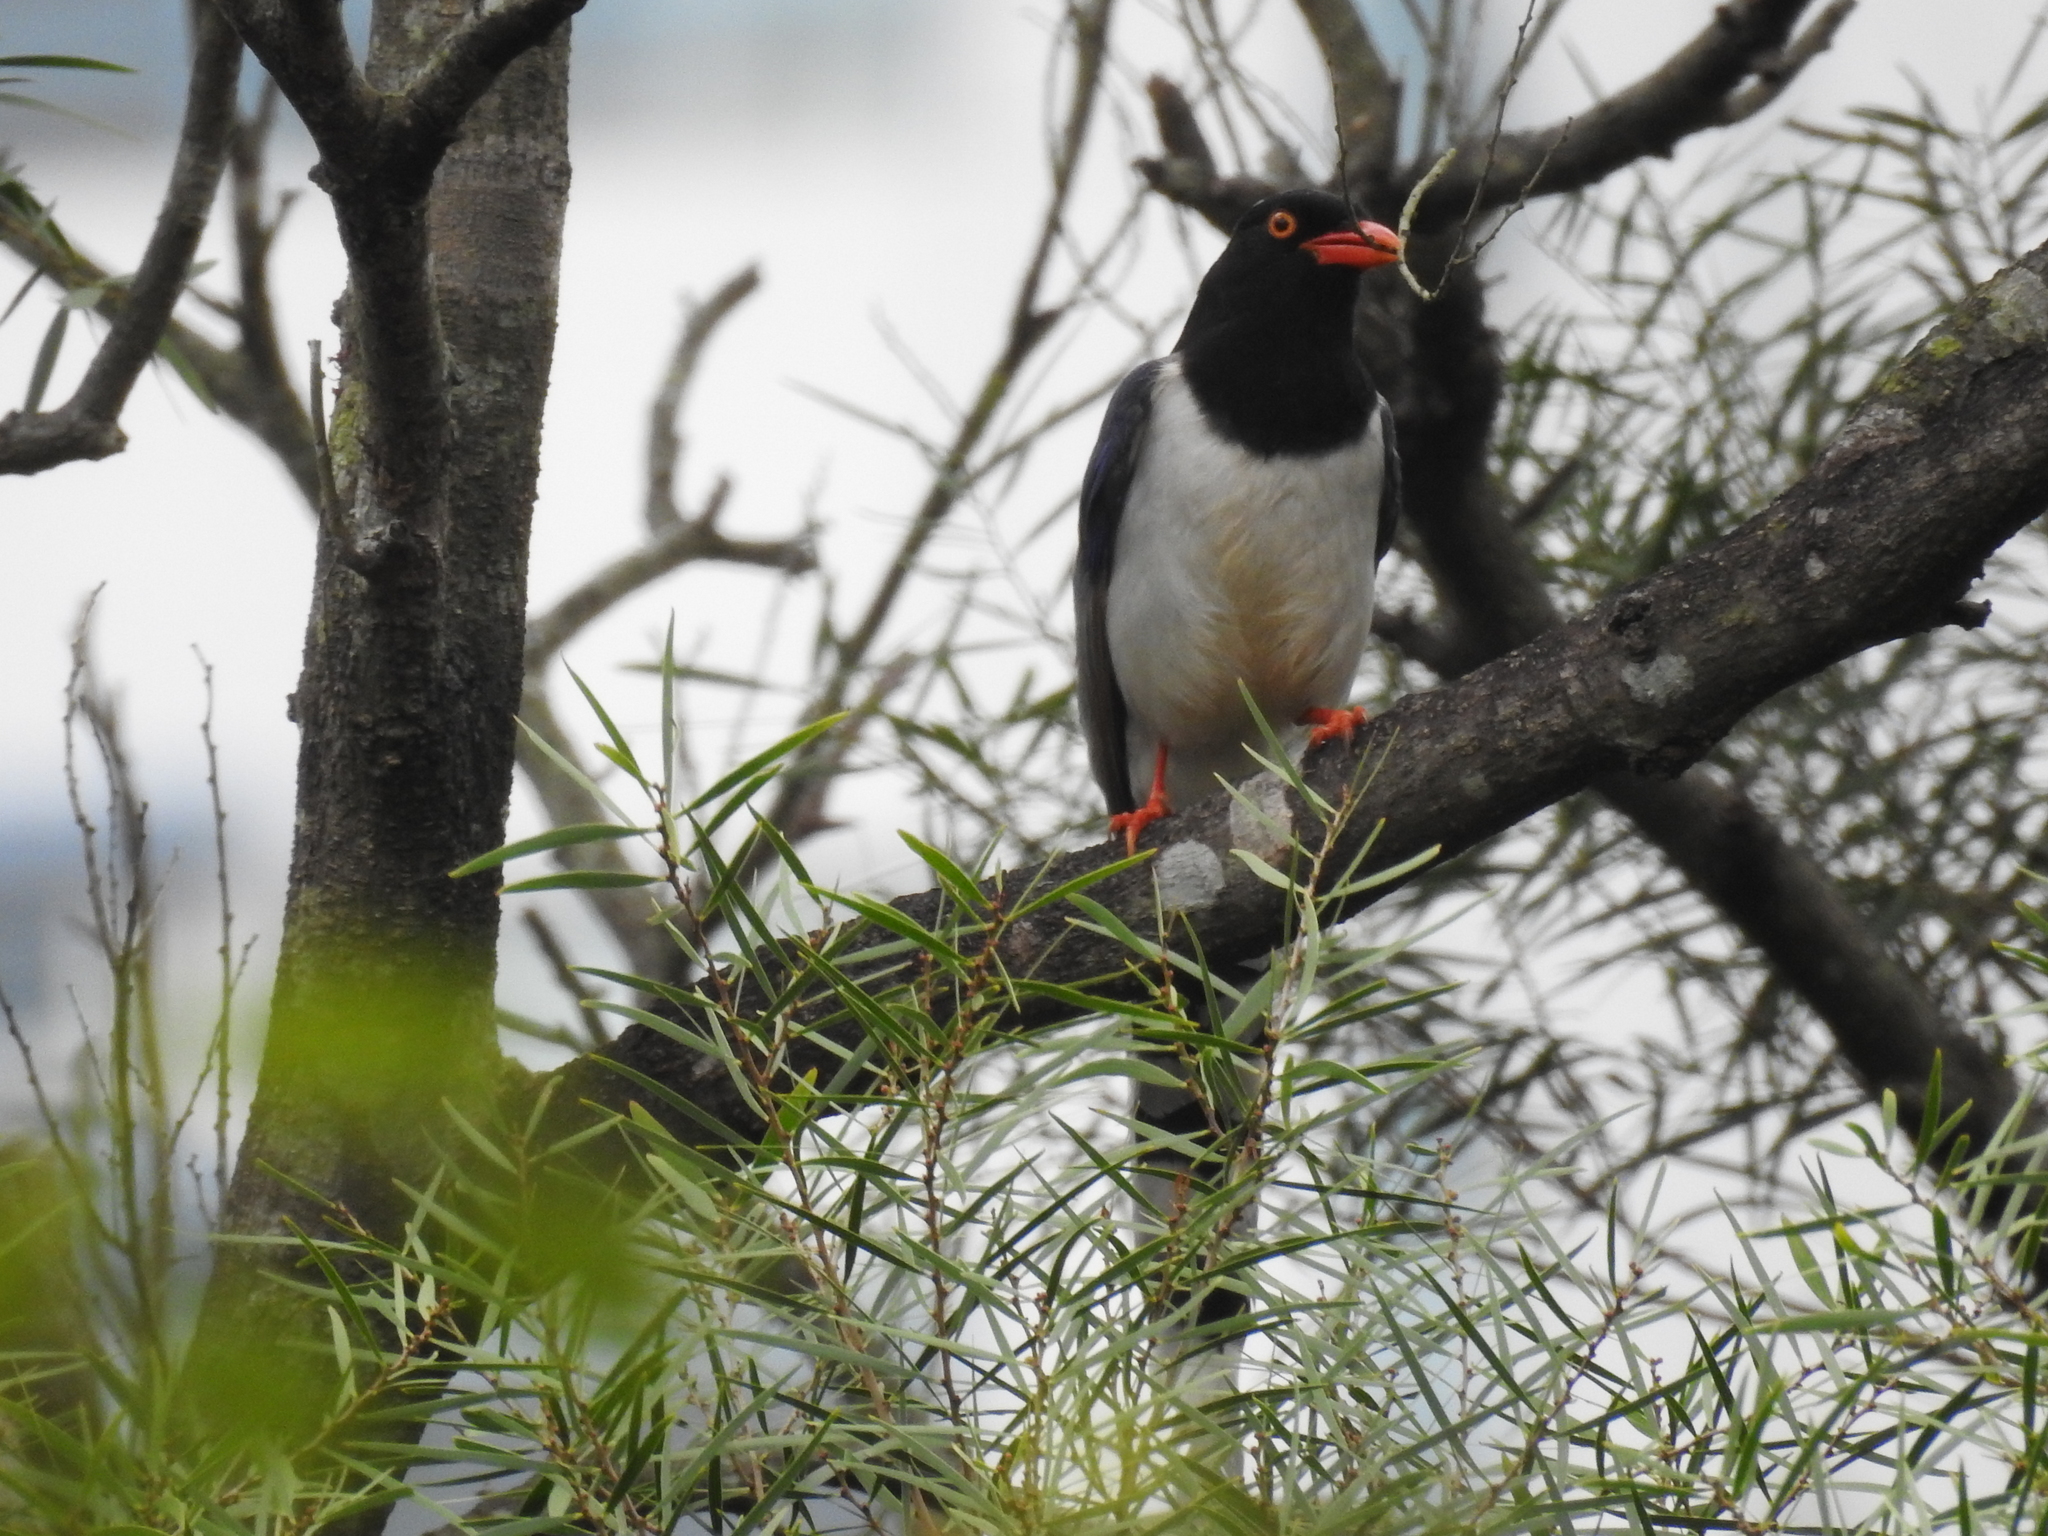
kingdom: Animalia
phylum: Chordata
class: Aves
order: Passeriformes
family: Corvidae
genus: Urocissa
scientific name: Urocissa erythroryncha
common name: Red-billed blue magpie
